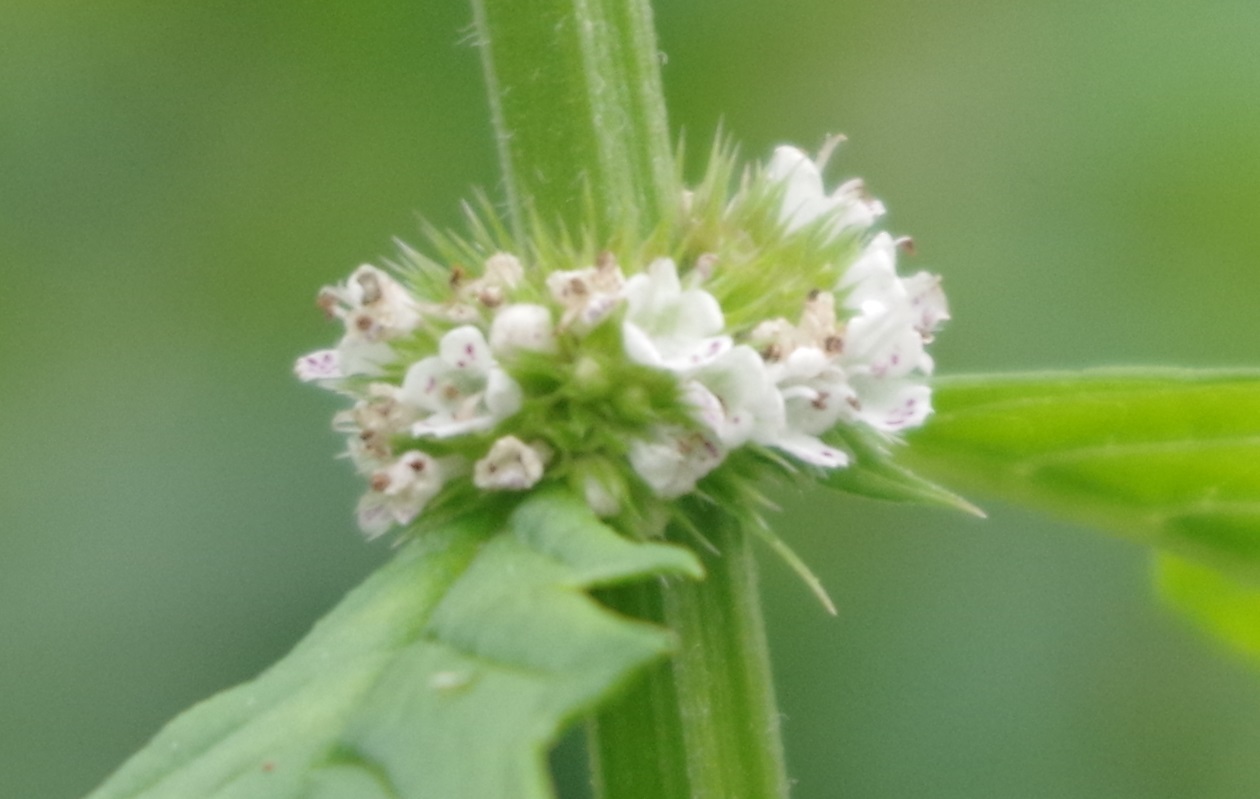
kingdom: Plantae
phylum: Tracheophyta
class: Magnoliopsida
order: Lamiales
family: Lamiaceae
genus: Lycopus
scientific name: Lycopus europaeus
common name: European bugleweed
